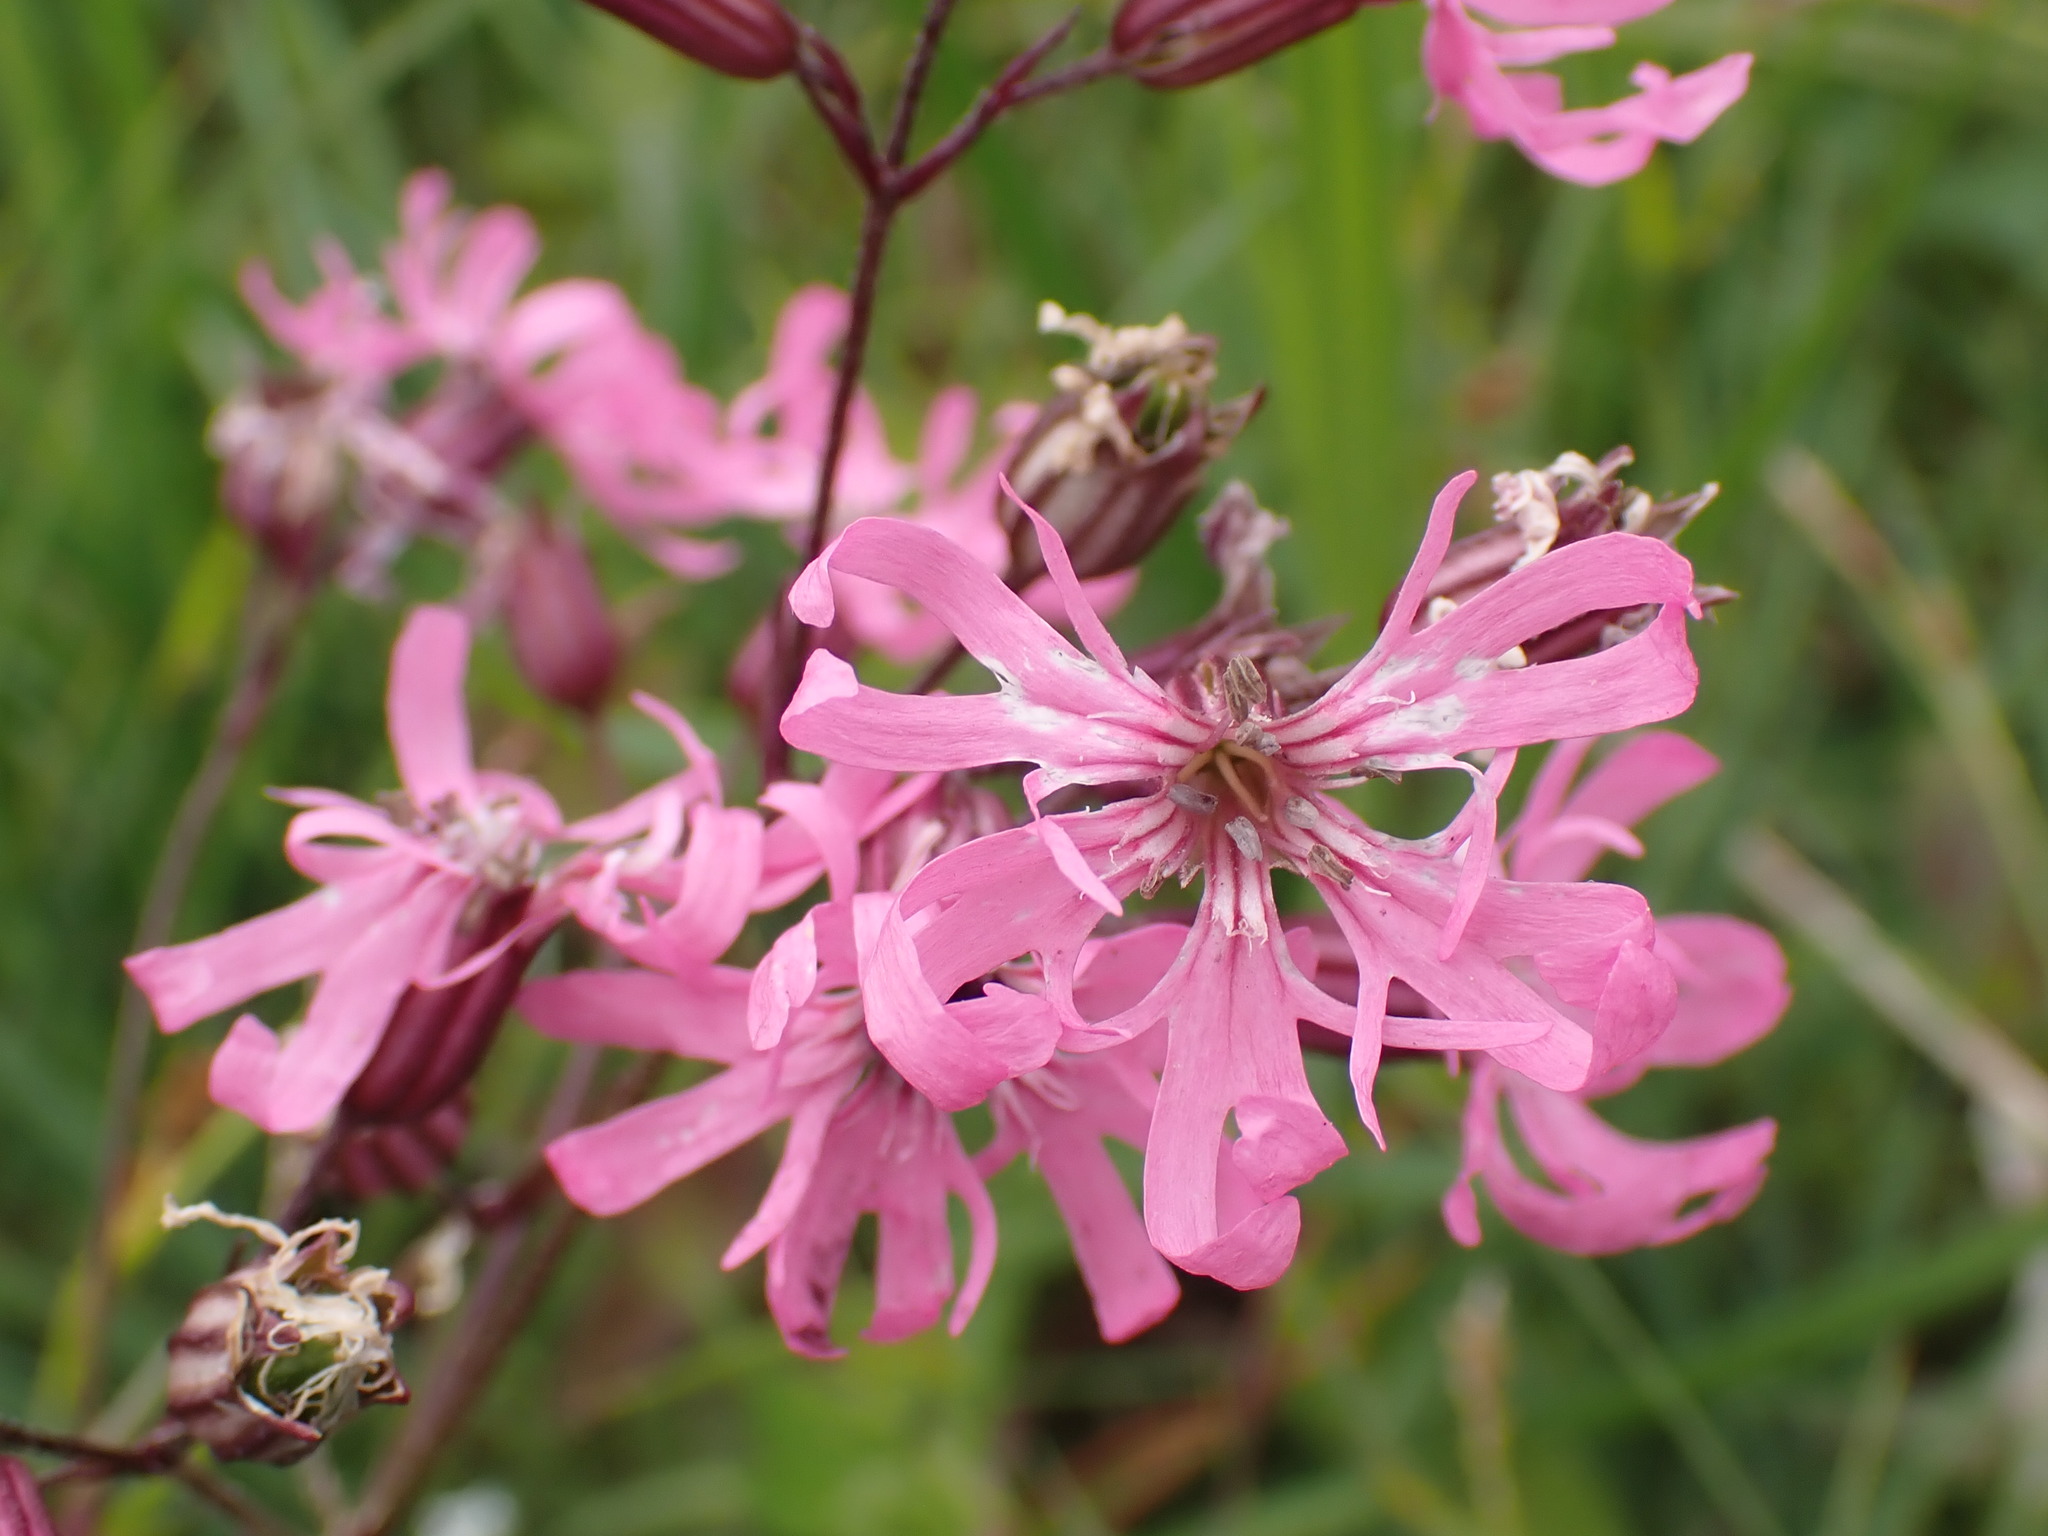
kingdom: Plantae
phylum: Tracheophyta
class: Magnoliopsida
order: Caryophyllales
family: Caryophyllaceae
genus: Silene
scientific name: Silene flos-cuculi
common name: Ragged-robin
